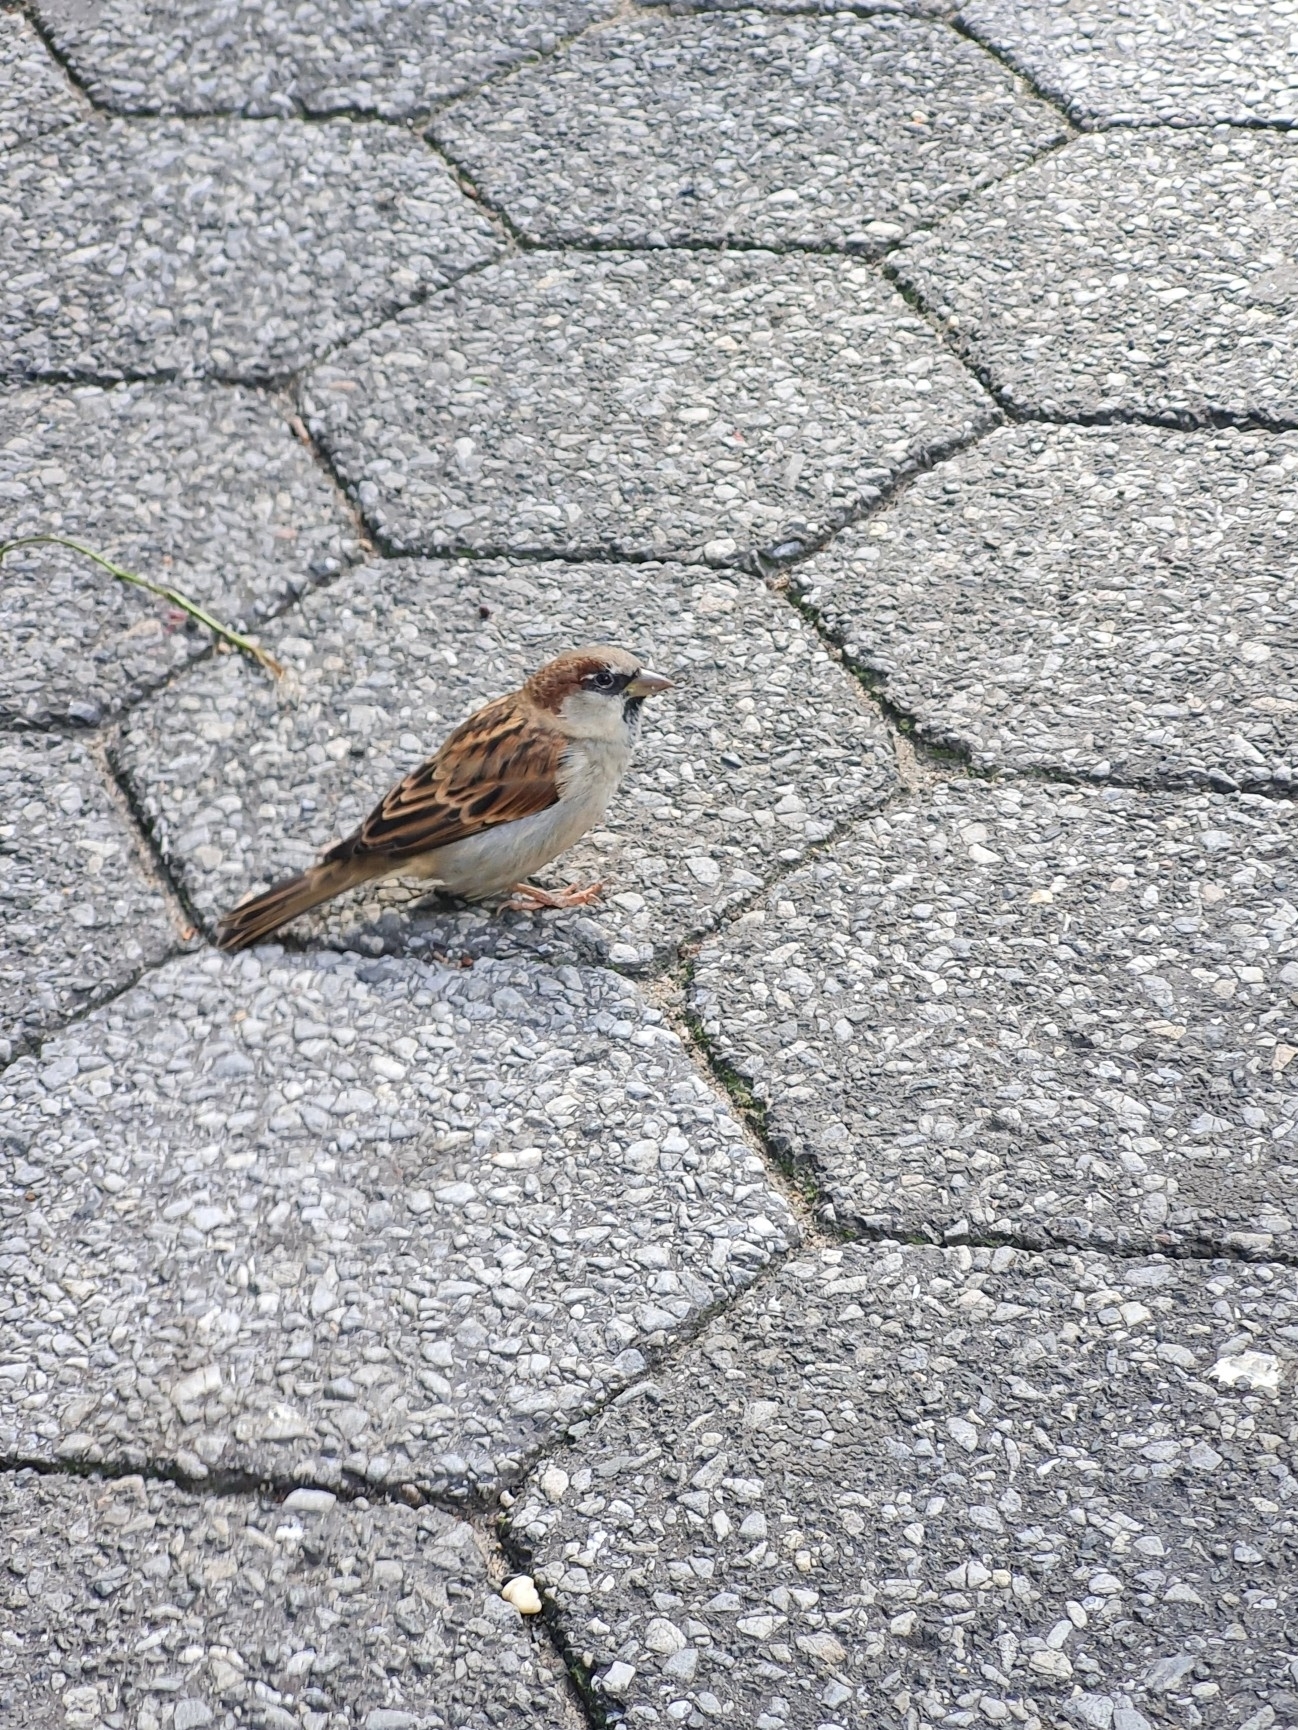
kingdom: Animalia
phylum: Chordata
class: Aves
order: Passeriformes
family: Passeridae
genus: Passer
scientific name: Passer domesticus
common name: House sparrow
